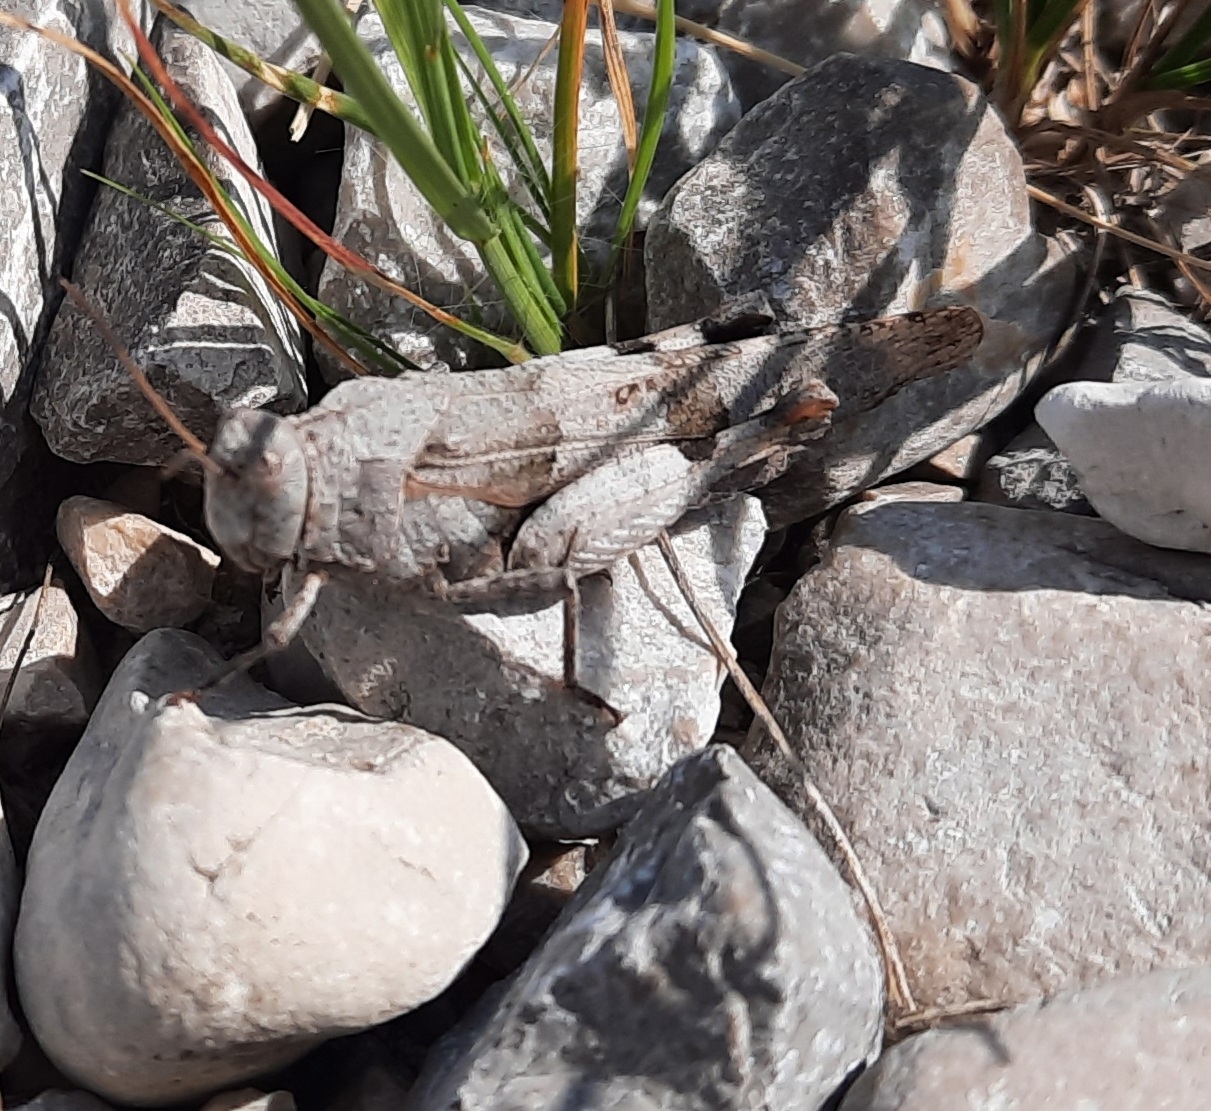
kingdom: Animalia
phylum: Arthropoda
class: Insecta
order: Orthoptera
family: Acrididae
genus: Oedipoda
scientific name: Oedipoda caerulescens
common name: Blue-winged grasshopper
